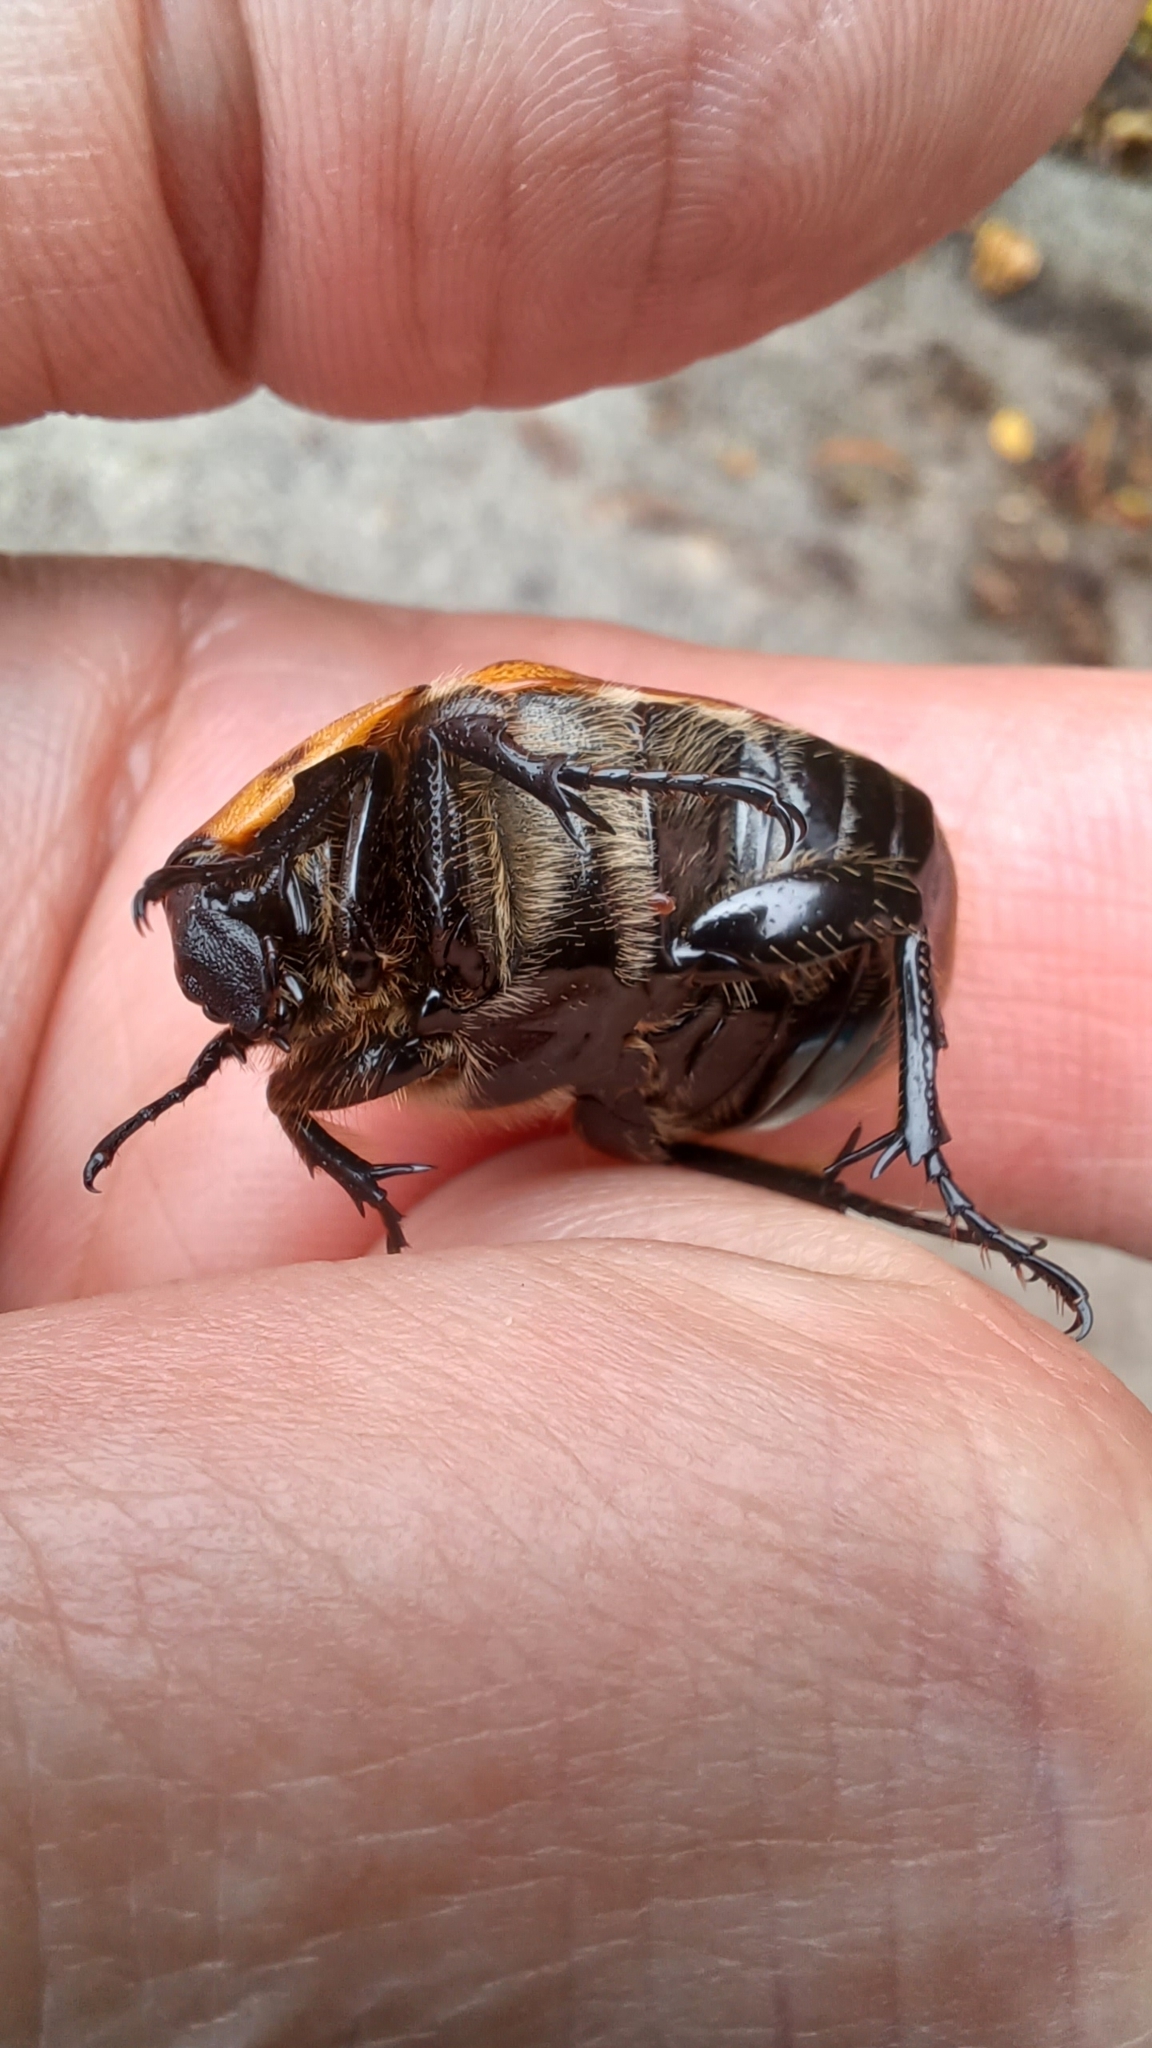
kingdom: Animalia
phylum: Arthropoda
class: Insecta
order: Coleoptera
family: Scarabaeidae
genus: Chondropyga
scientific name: Chondropyga dorsalis
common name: Cowboy beetle
